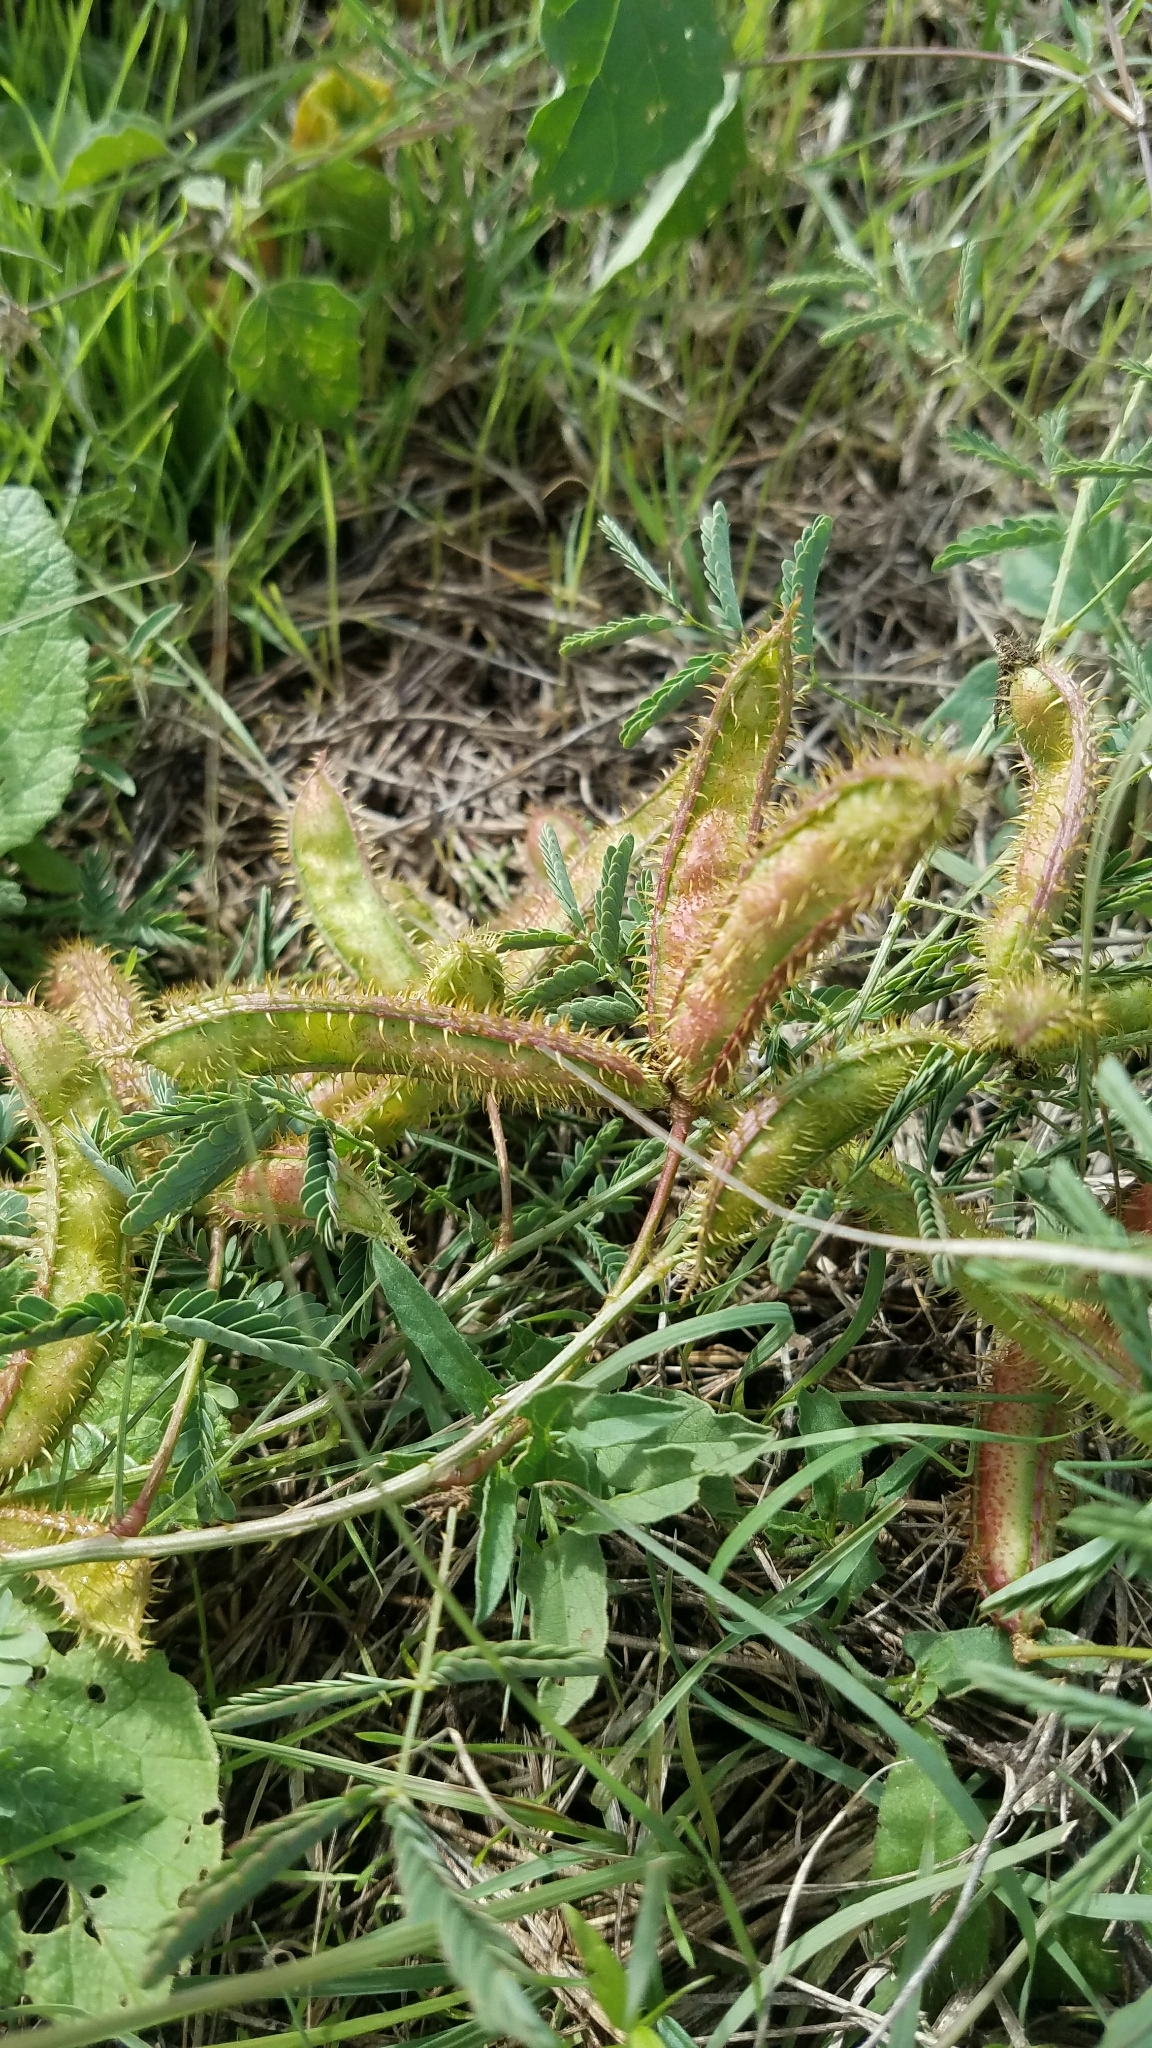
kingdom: Plantae
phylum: Tracheophyta
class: Magnoliopsida
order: Fabales
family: Fabaceae
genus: Mimosa
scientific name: Mimosa quadrivalvis
